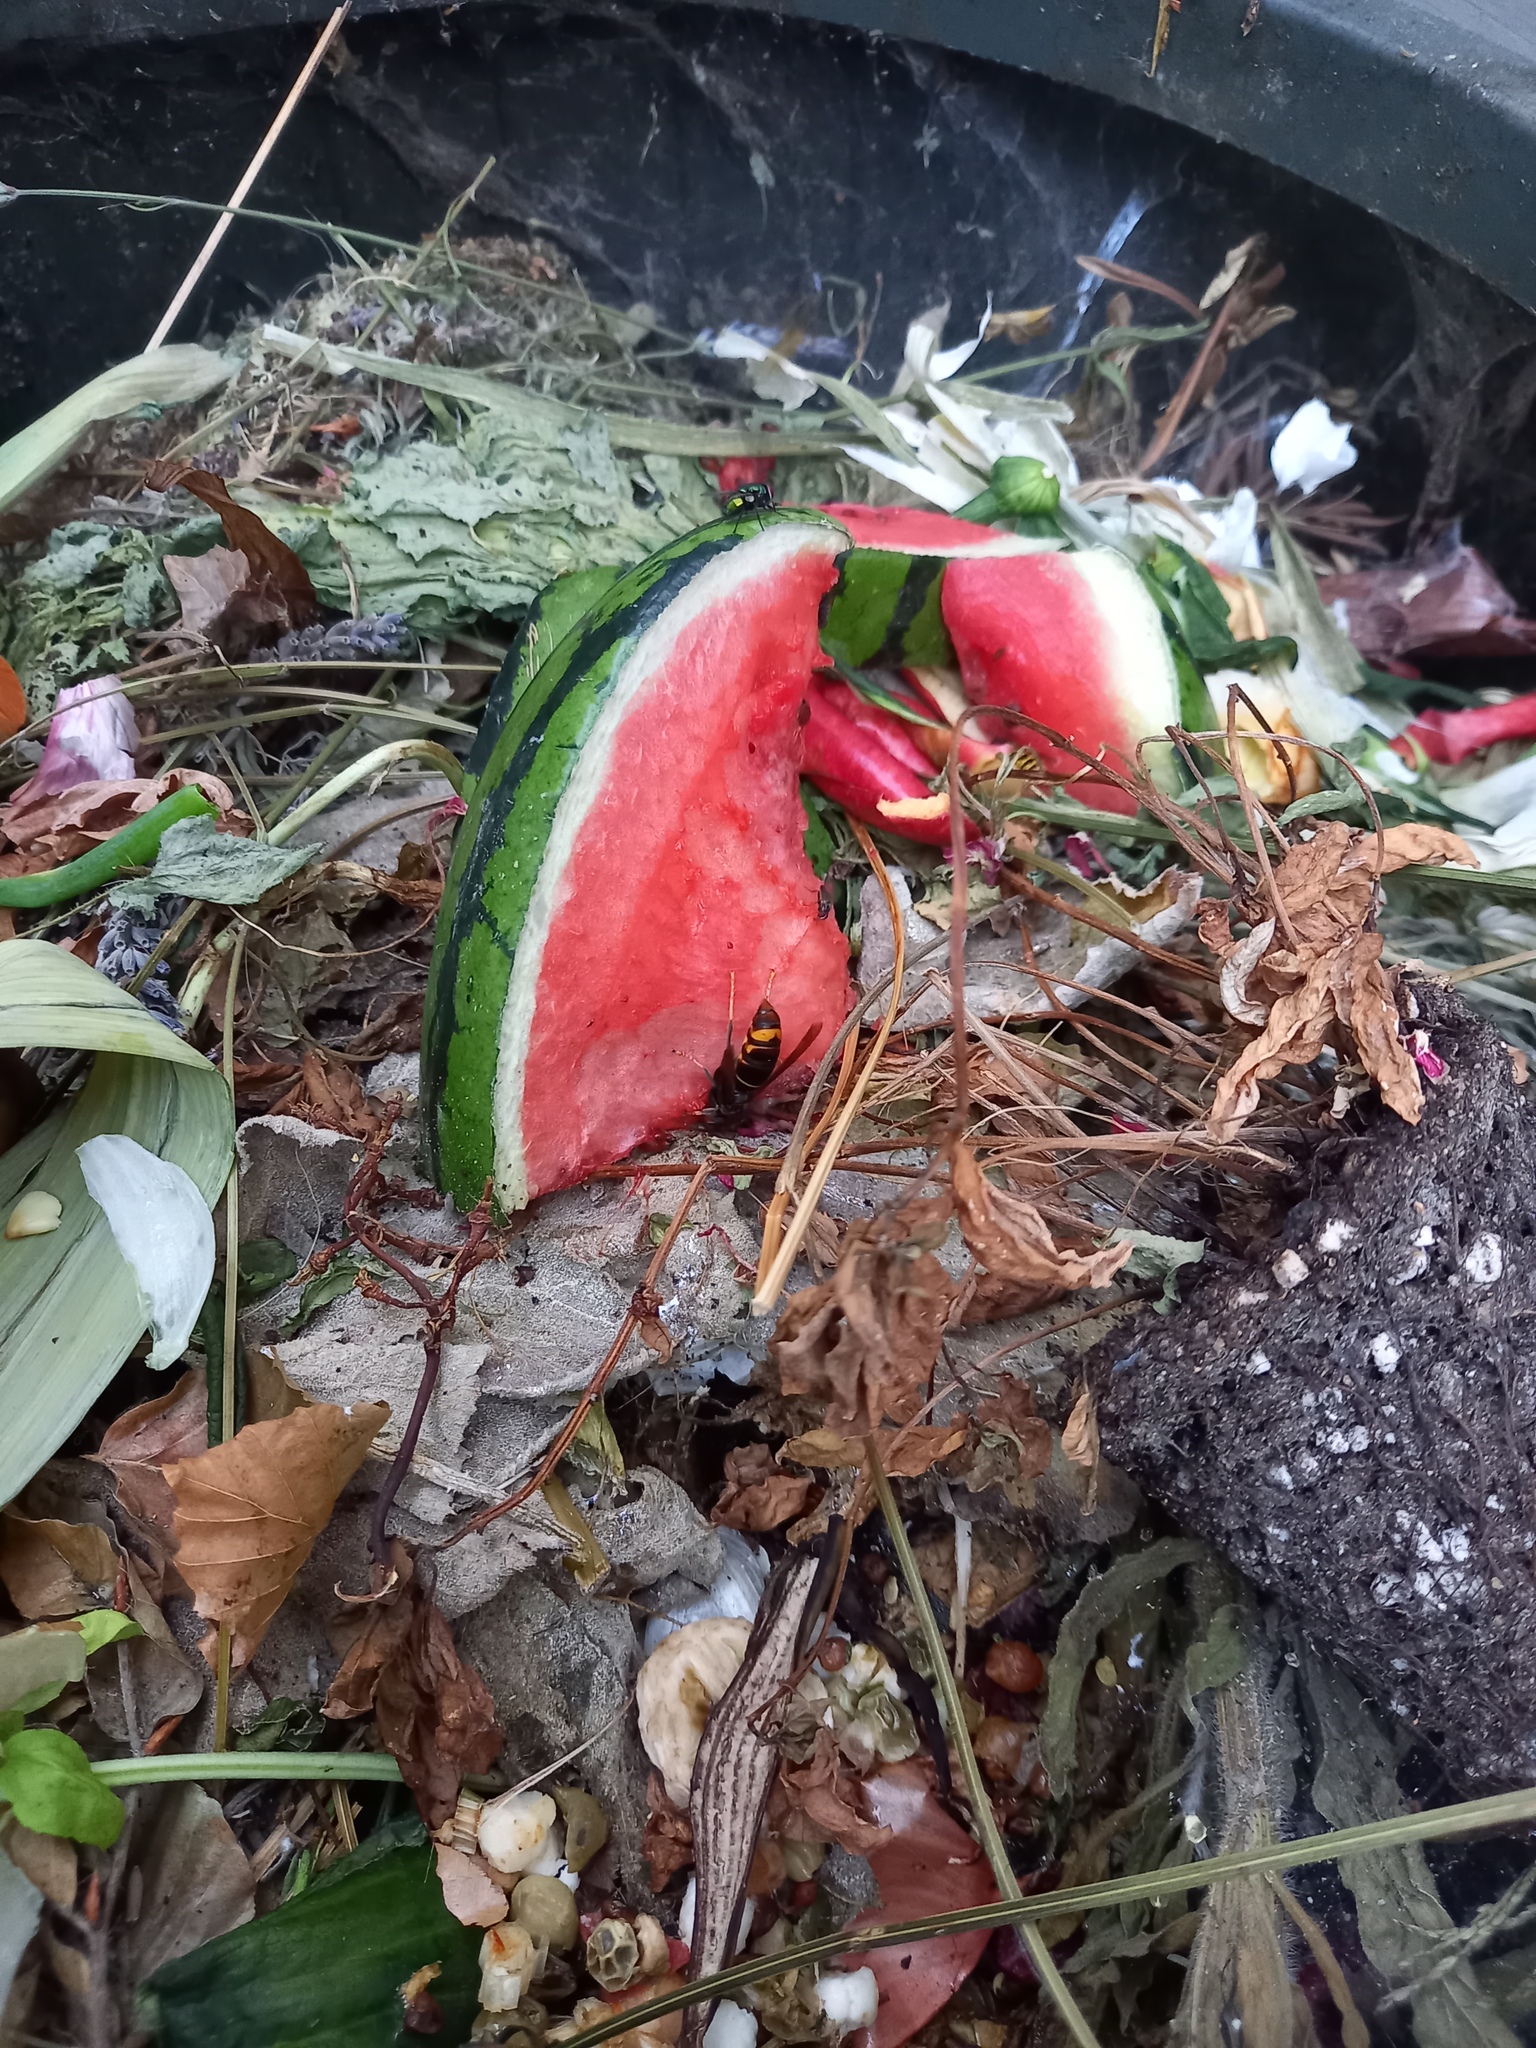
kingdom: Animalia
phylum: Arthropoda
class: Insecta
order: Hymenoptera
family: Vespidae
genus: Vespa
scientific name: Vespa velutina
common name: Asian hornet
